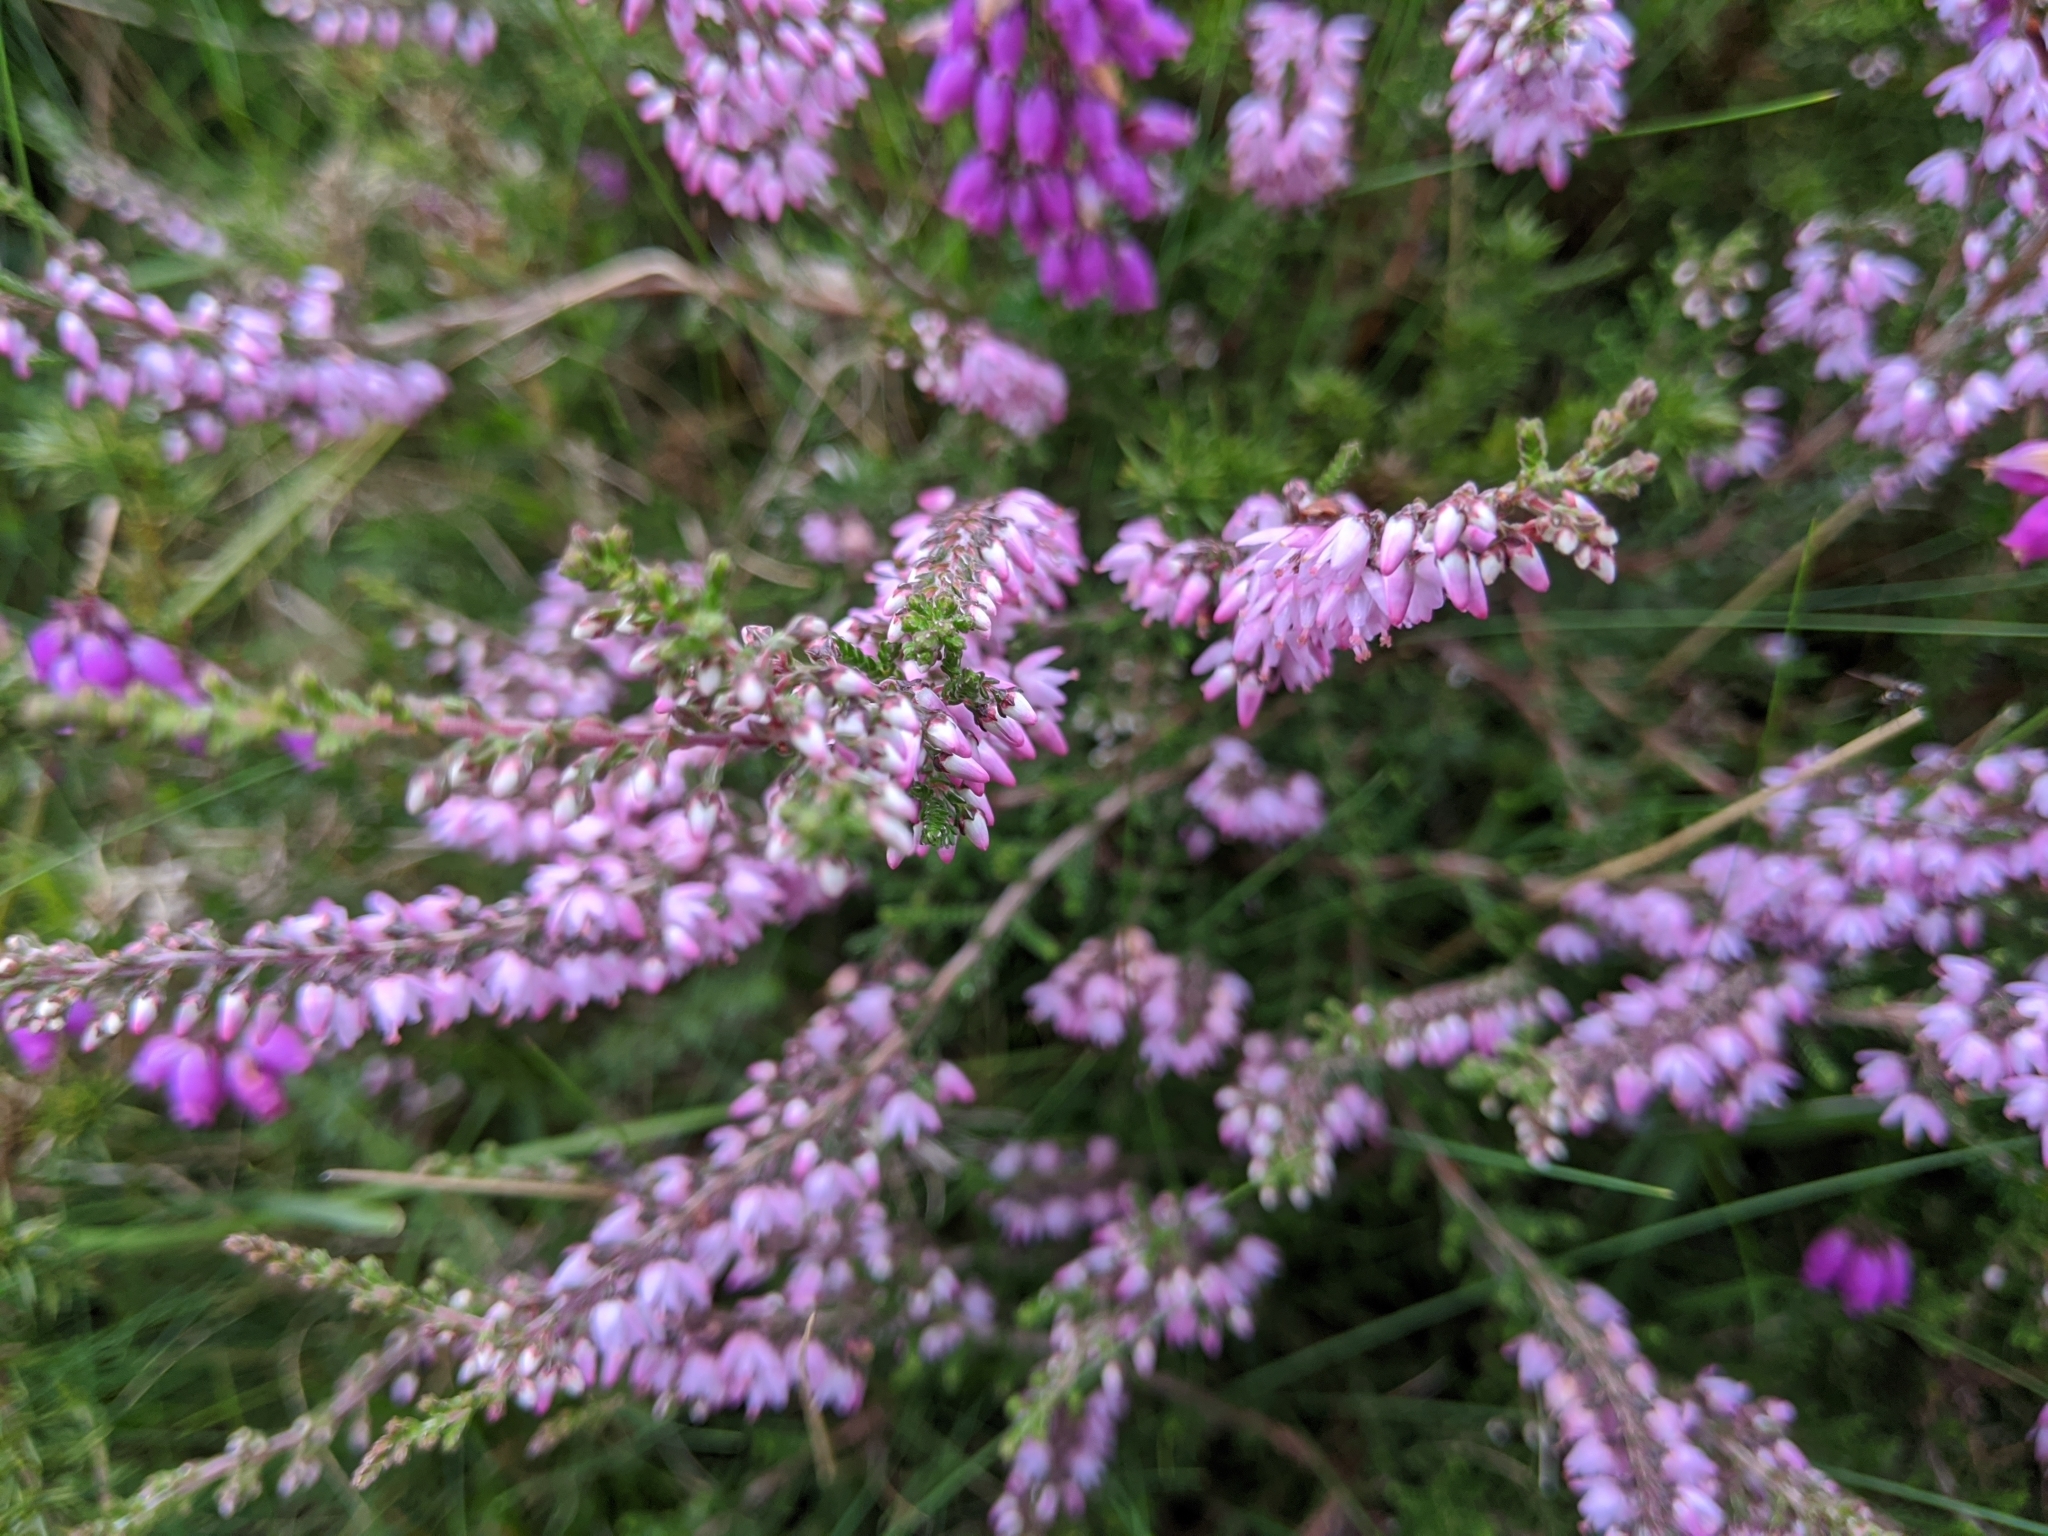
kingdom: Plantae
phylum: Tracheophyta
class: Magnoliopsida
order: Ericales
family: Ericaceae
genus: Calluna
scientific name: Calluna vulgaris
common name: Heather
